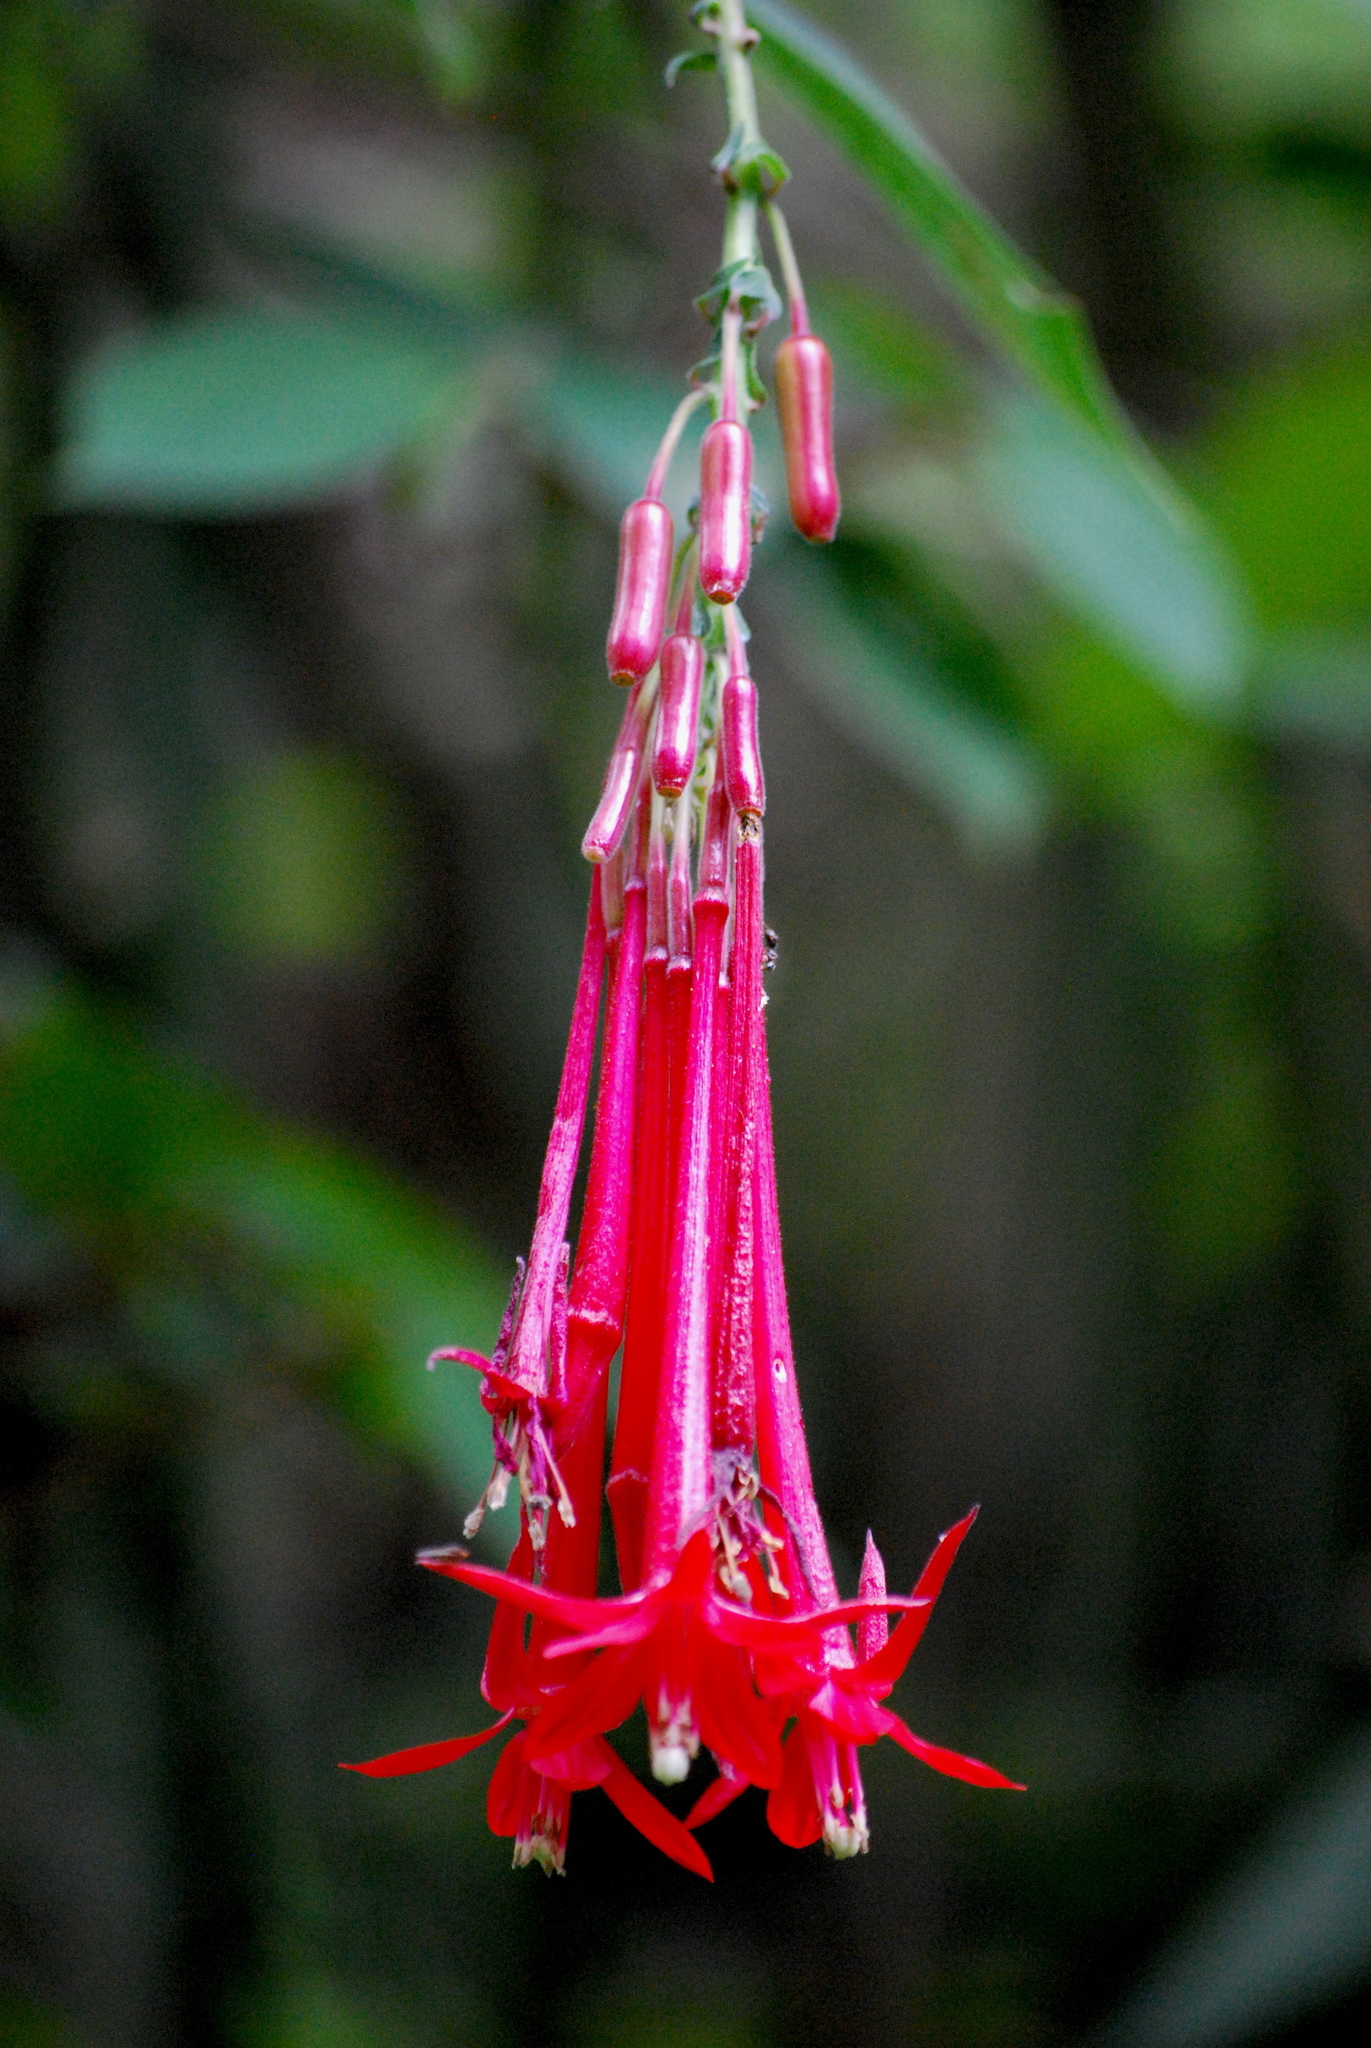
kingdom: Plantae
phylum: Tracheophyta
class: Magnoliopsida
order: Myrtales
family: Onagraceae
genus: Fuchsia
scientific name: Fuchsia boliviana
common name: Bolivian fuchsia
